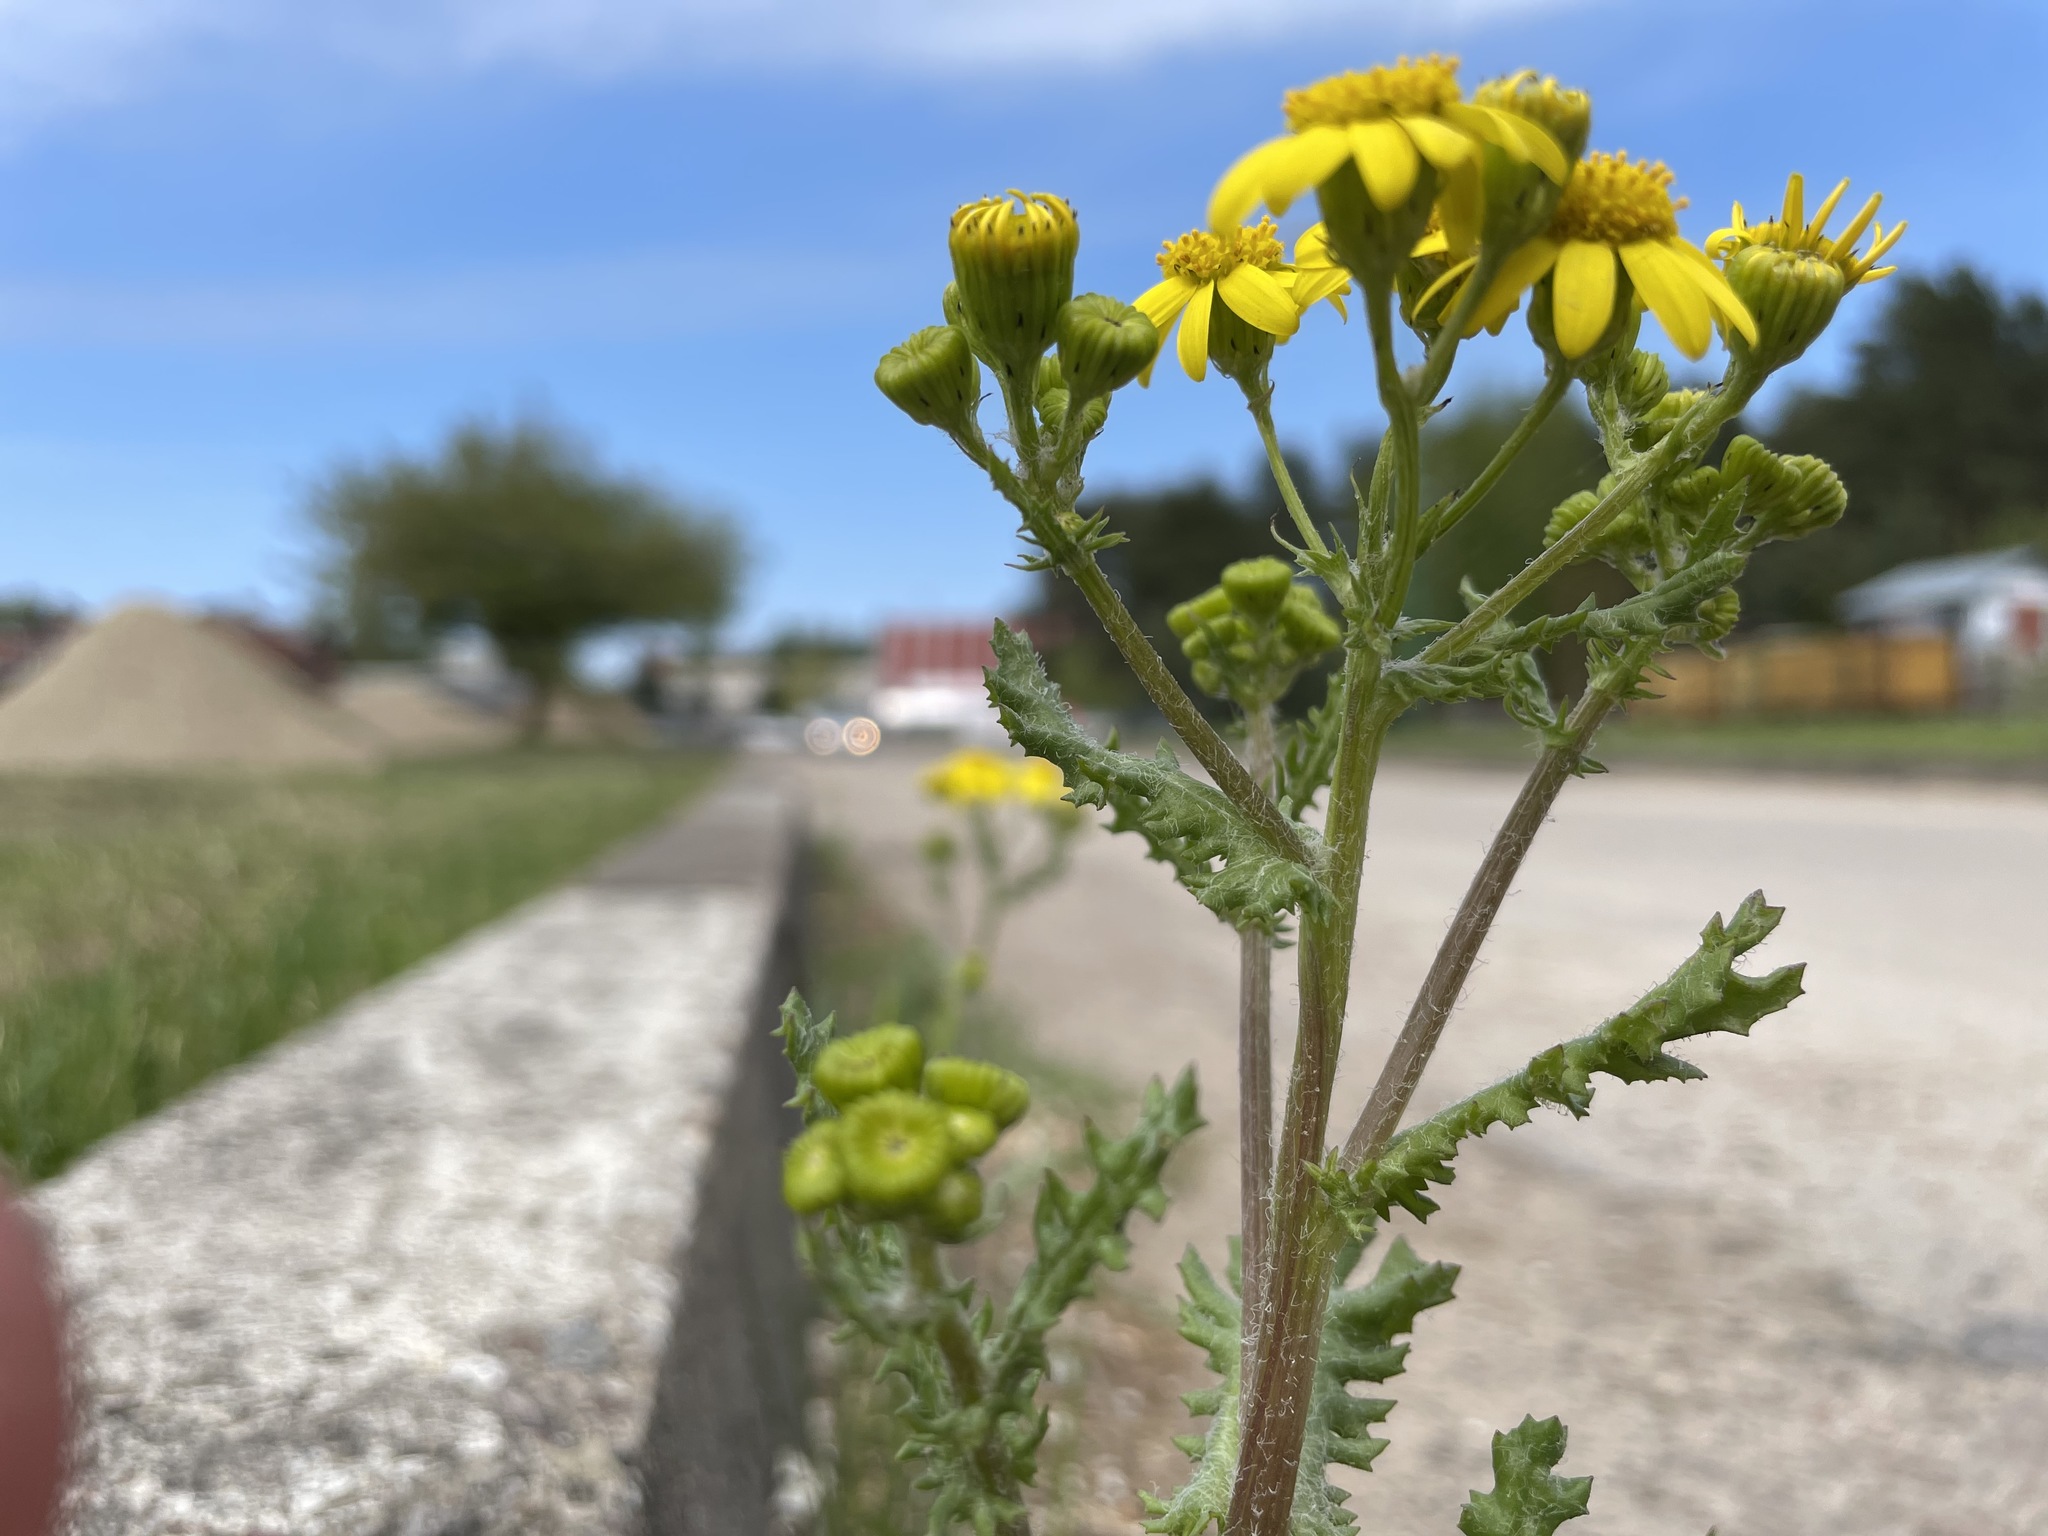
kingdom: Plantae
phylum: Tracheophyta
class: Magnoliopsida
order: Asterales
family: Asteraceae
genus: Senecio
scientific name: Senecio vernalis
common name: Eastern groundsel
